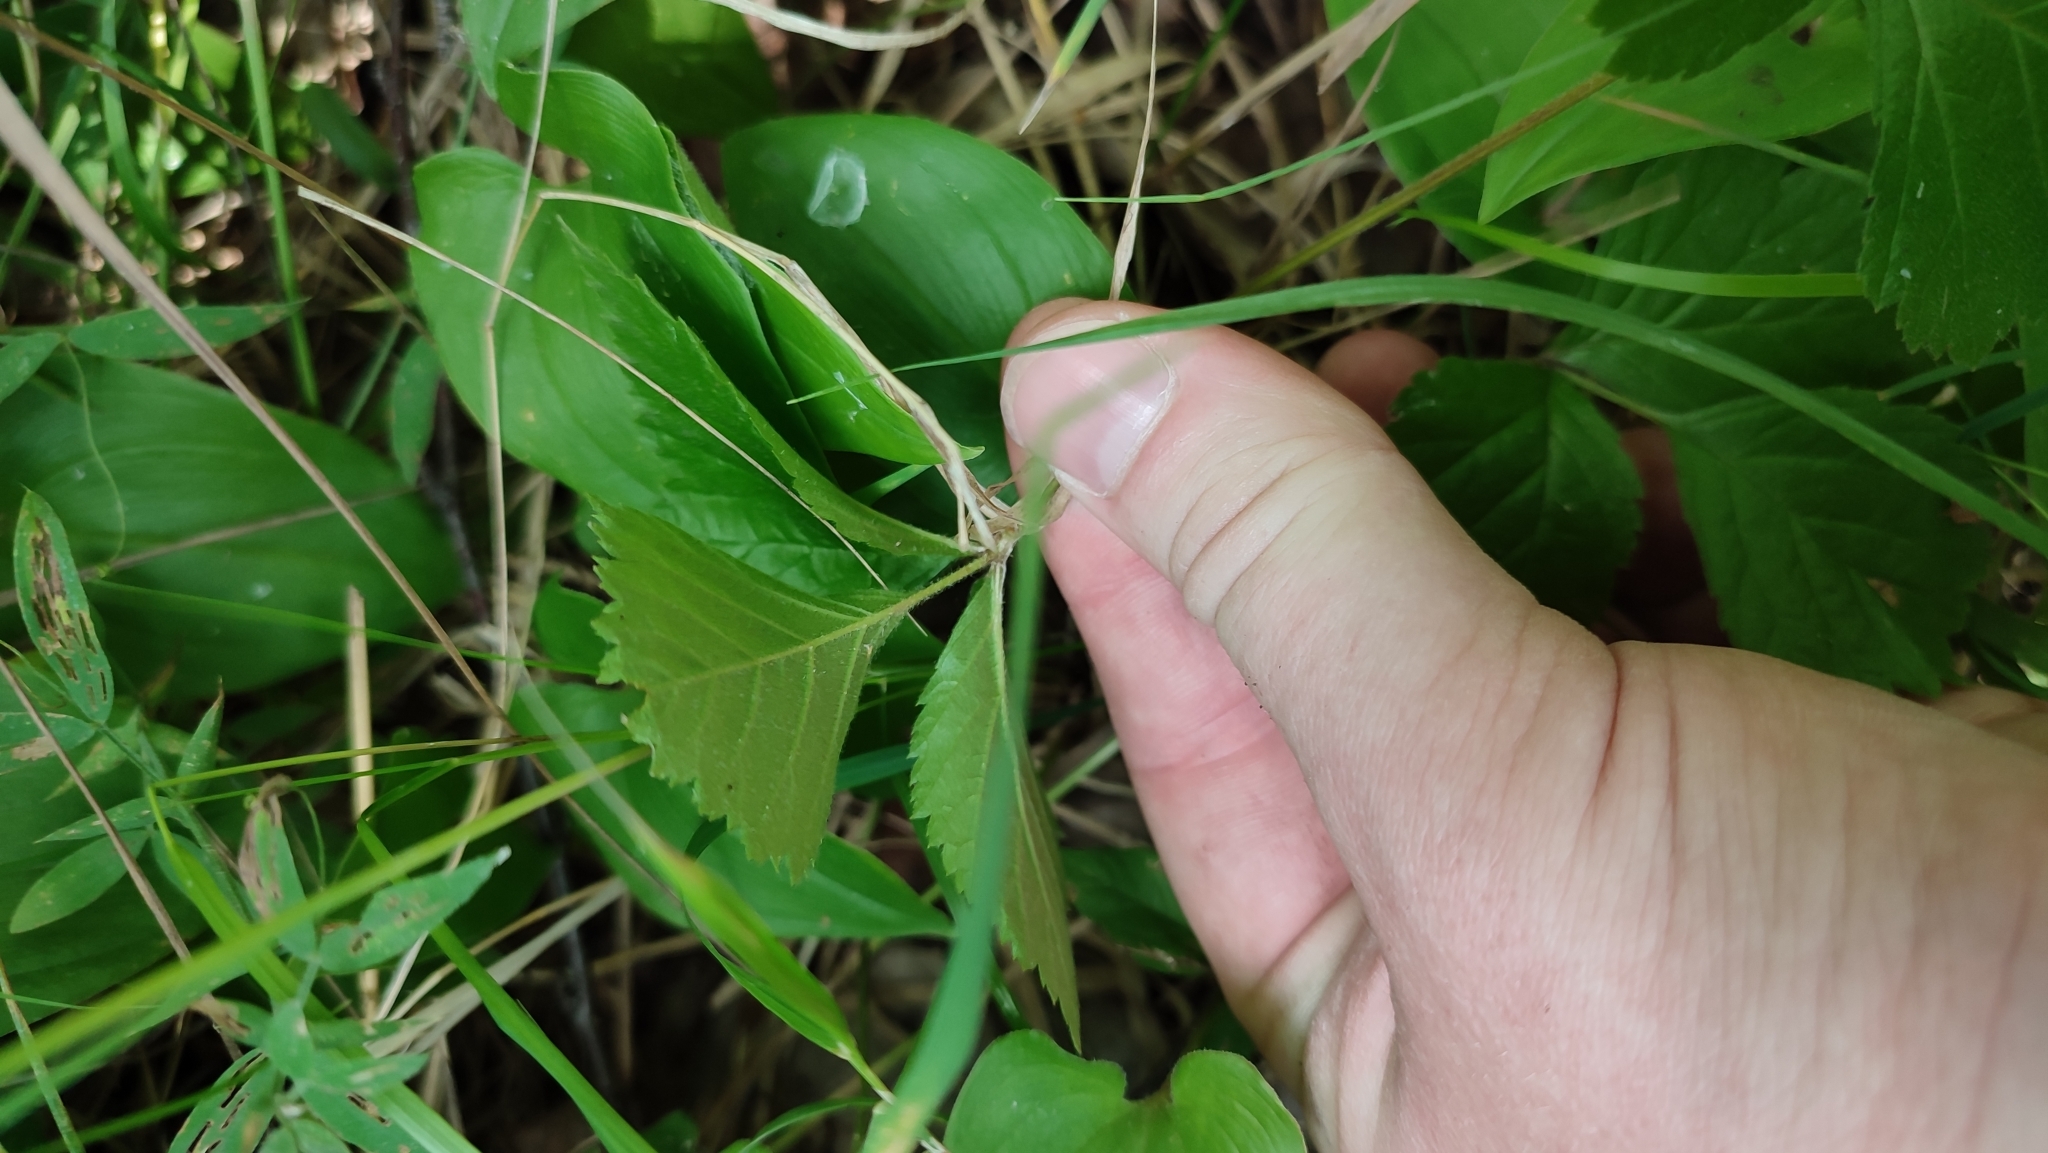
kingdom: Plantae
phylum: Tracheophyta
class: Magnoliopsida
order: Rosales
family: Rosaceae
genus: Rubus
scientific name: Rubus saxatilis
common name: Stone bramble
